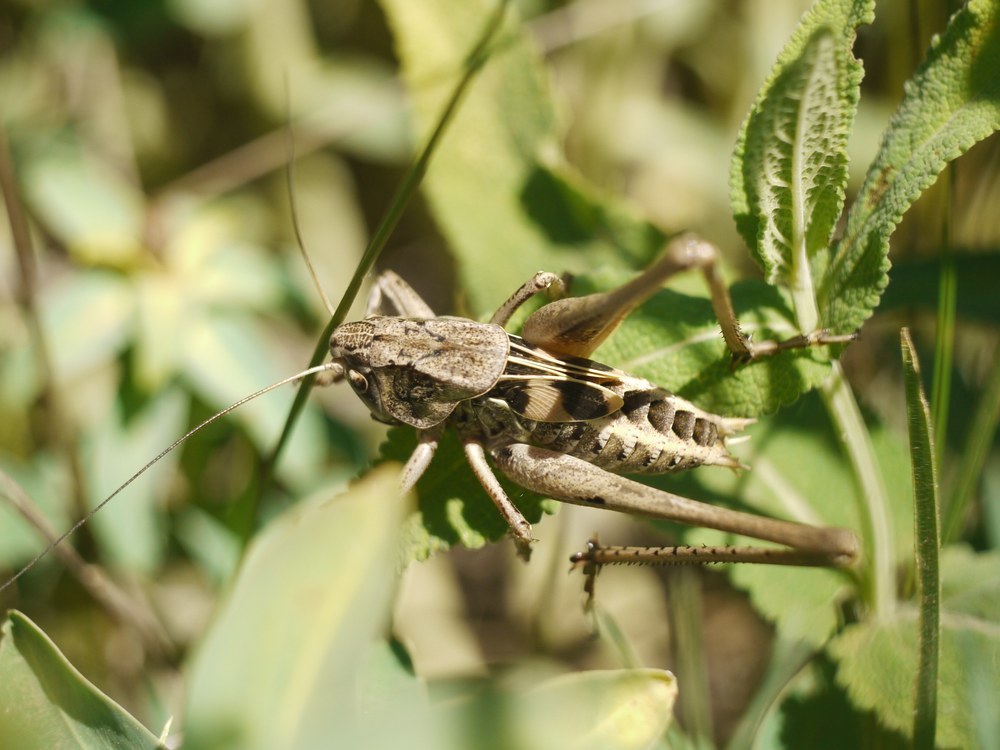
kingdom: Animalia
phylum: Arthropoda
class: Insecta
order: Orthoptera
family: Tettigoniidae
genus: Decticus
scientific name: Decticus verrucivorus
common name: Wart-biter
